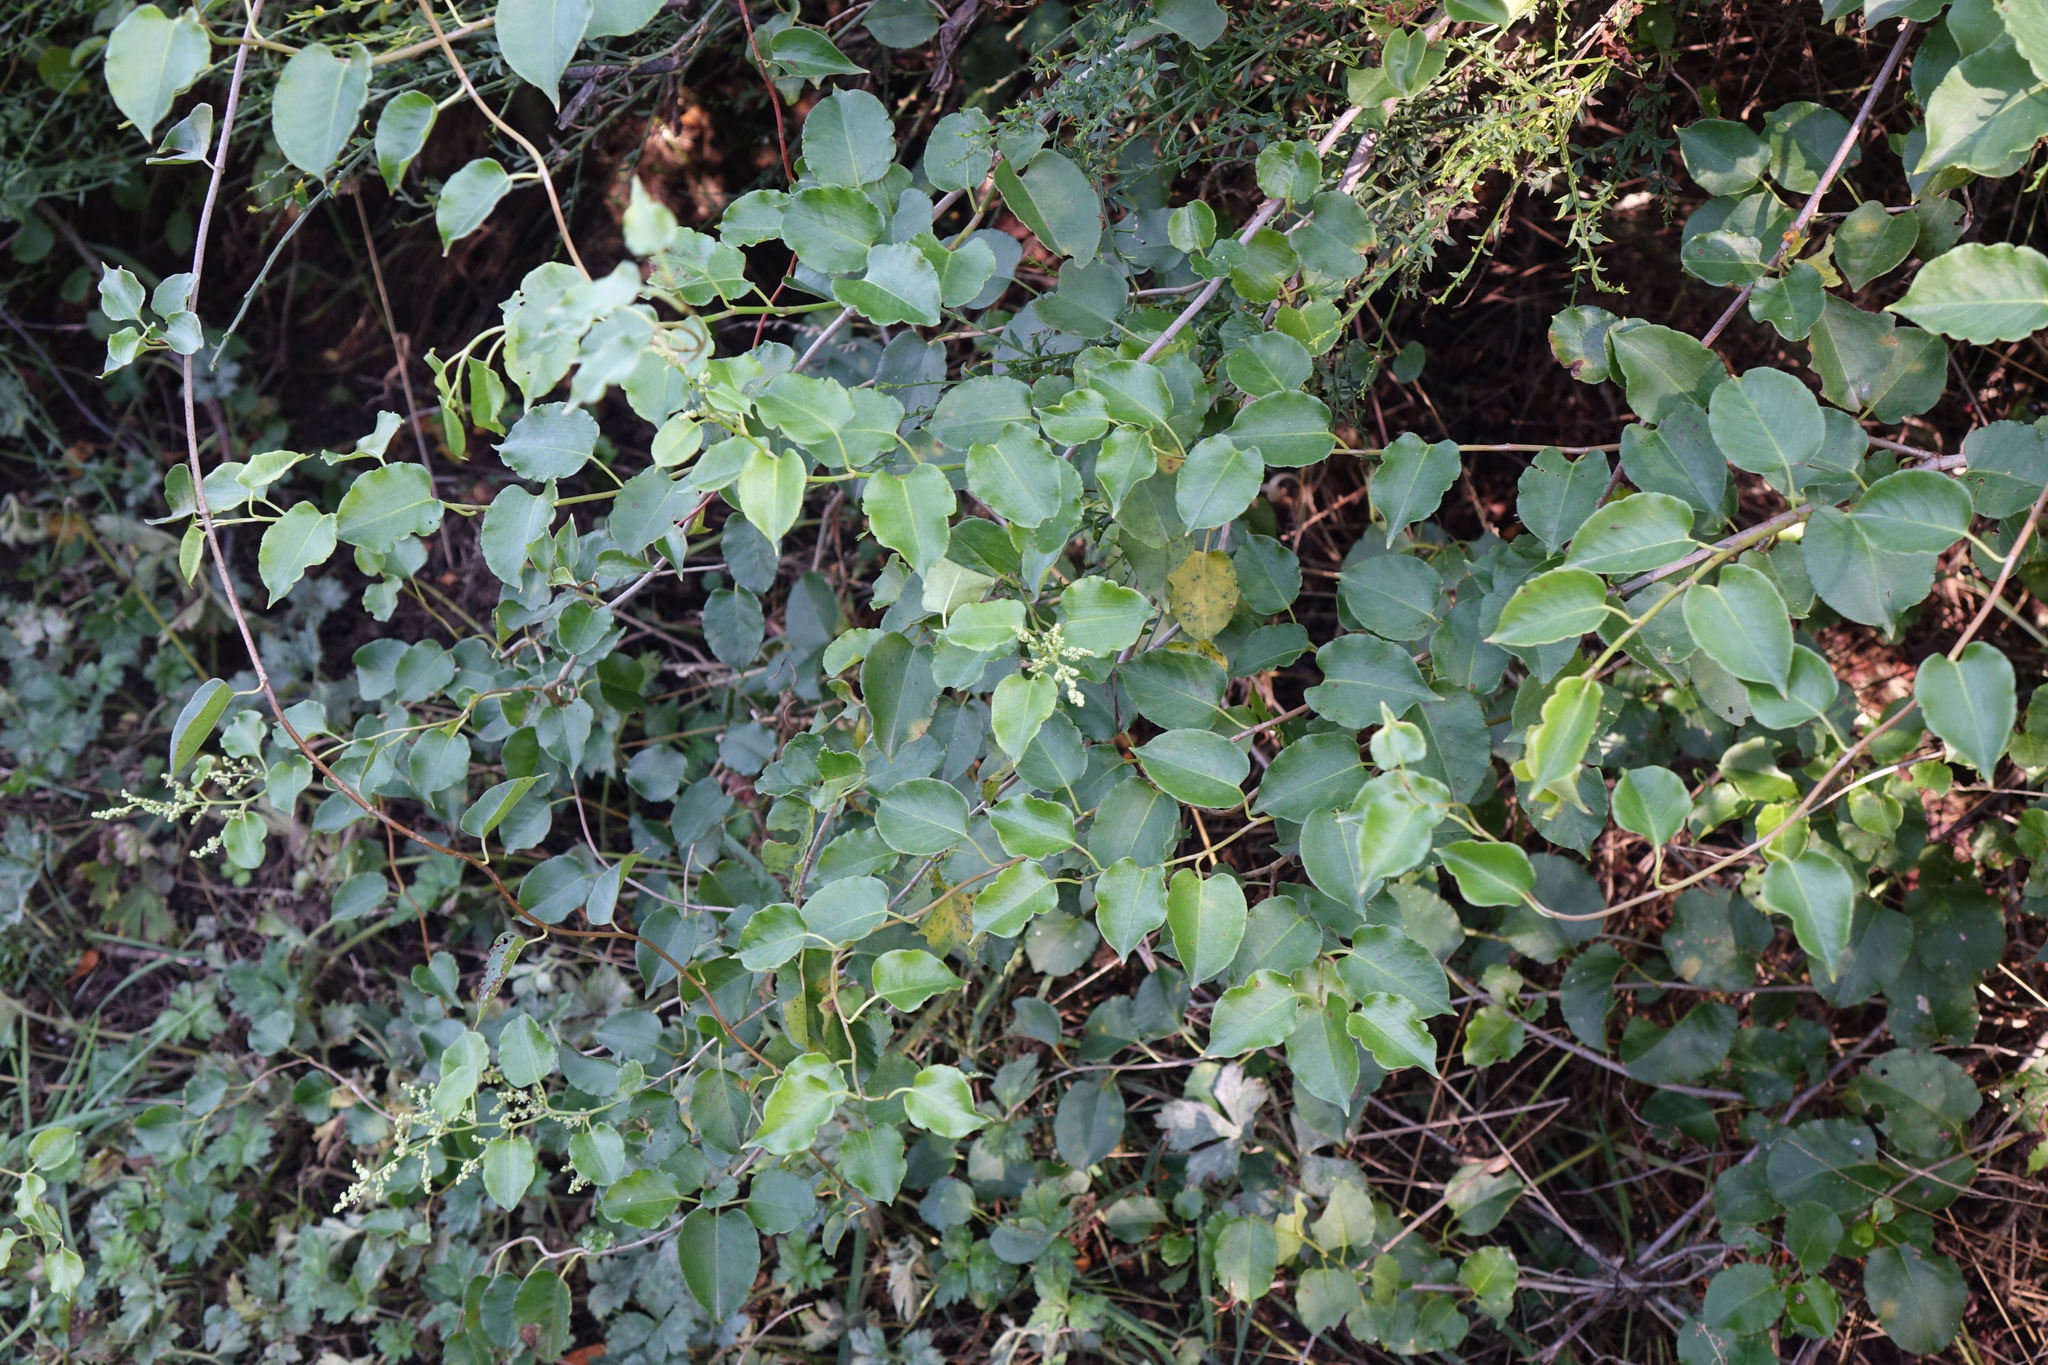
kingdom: Plantae
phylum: Tracheophyta
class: Magnoliopsida
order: Caryophyllales
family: Polygonaceae
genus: Muehlenbeckia
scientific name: Muehlenbeckia australis
